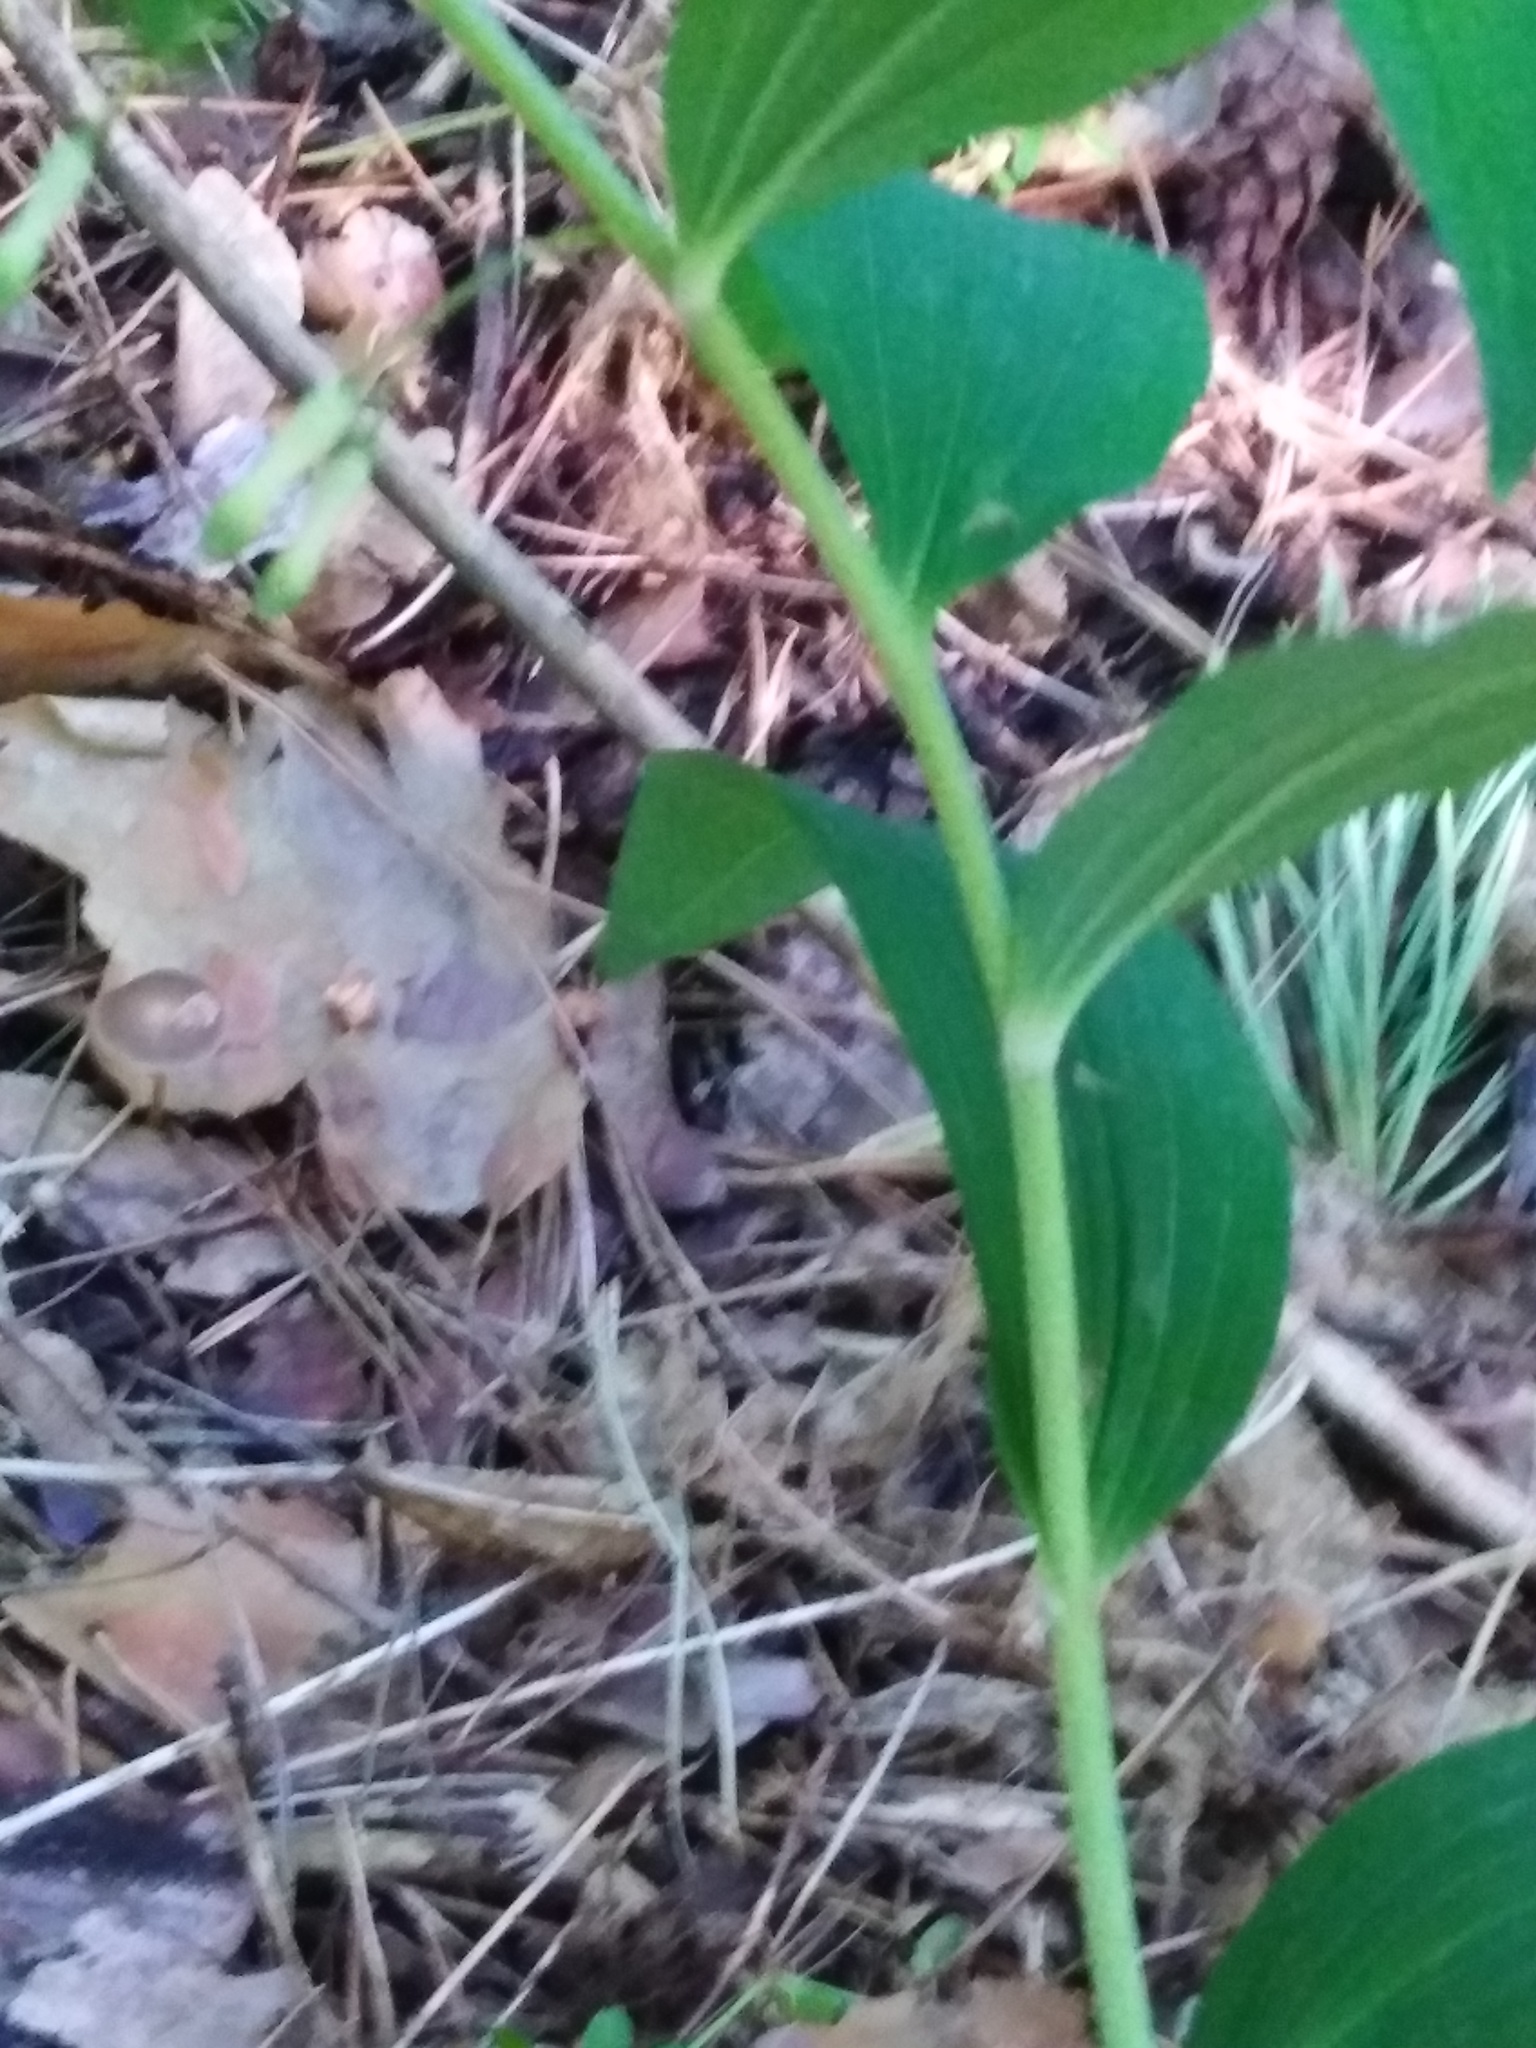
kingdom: Plantae
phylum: Tracheophyta
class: Liliopsida
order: Asparagales
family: Asparagaceae
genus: Polygonatum
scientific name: Polygonatum multiflorum
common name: Solomon's-seal
